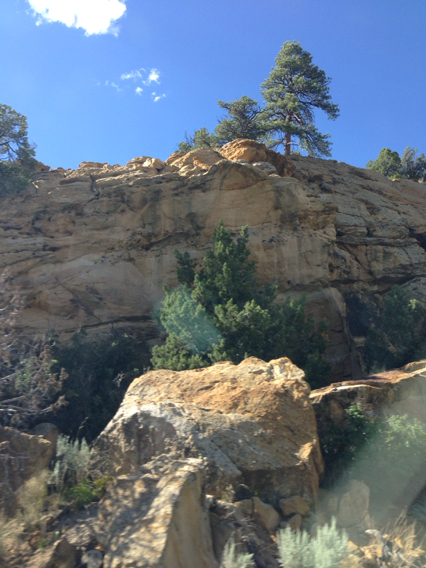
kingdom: Plantae
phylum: Tracheophyta
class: Pinopsida
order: Pinales
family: Pinaceae
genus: Pinus
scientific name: Pinus ponderosa
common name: Western yellow-pine
